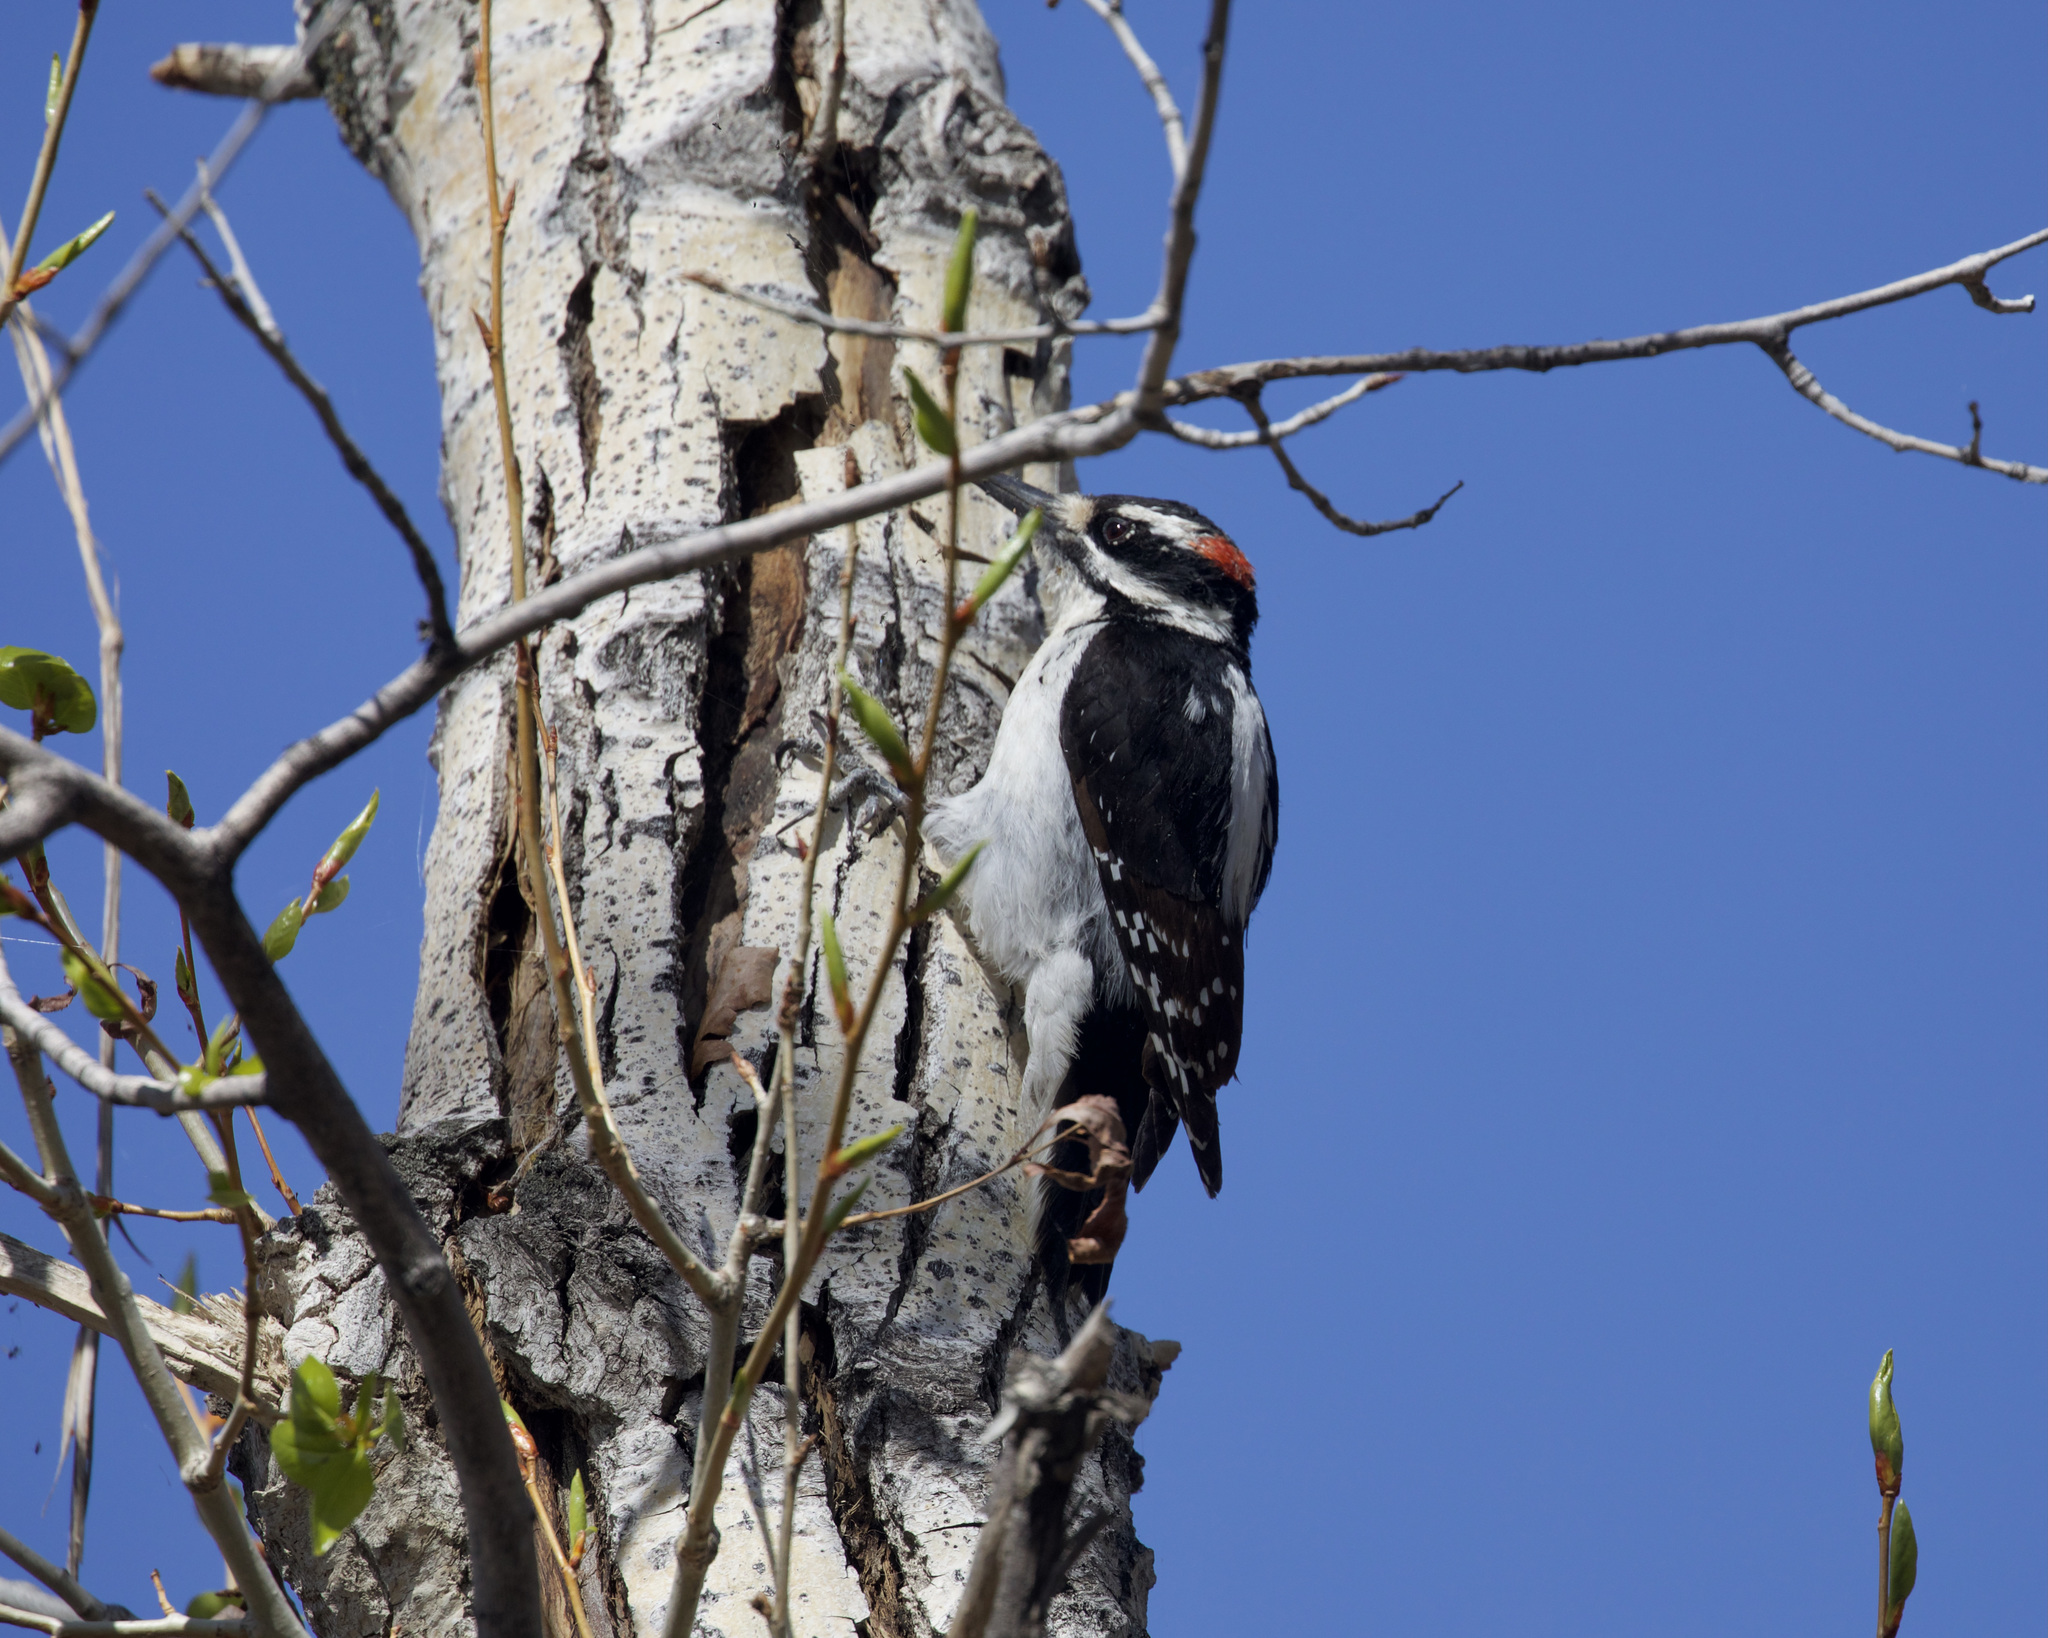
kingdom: Animalia
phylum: Chordata
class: Aves
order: Piciformes
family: Picidae
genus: Leuconotopicus
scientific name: Leuconotopicus villosus
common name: Hairy woodpecker
